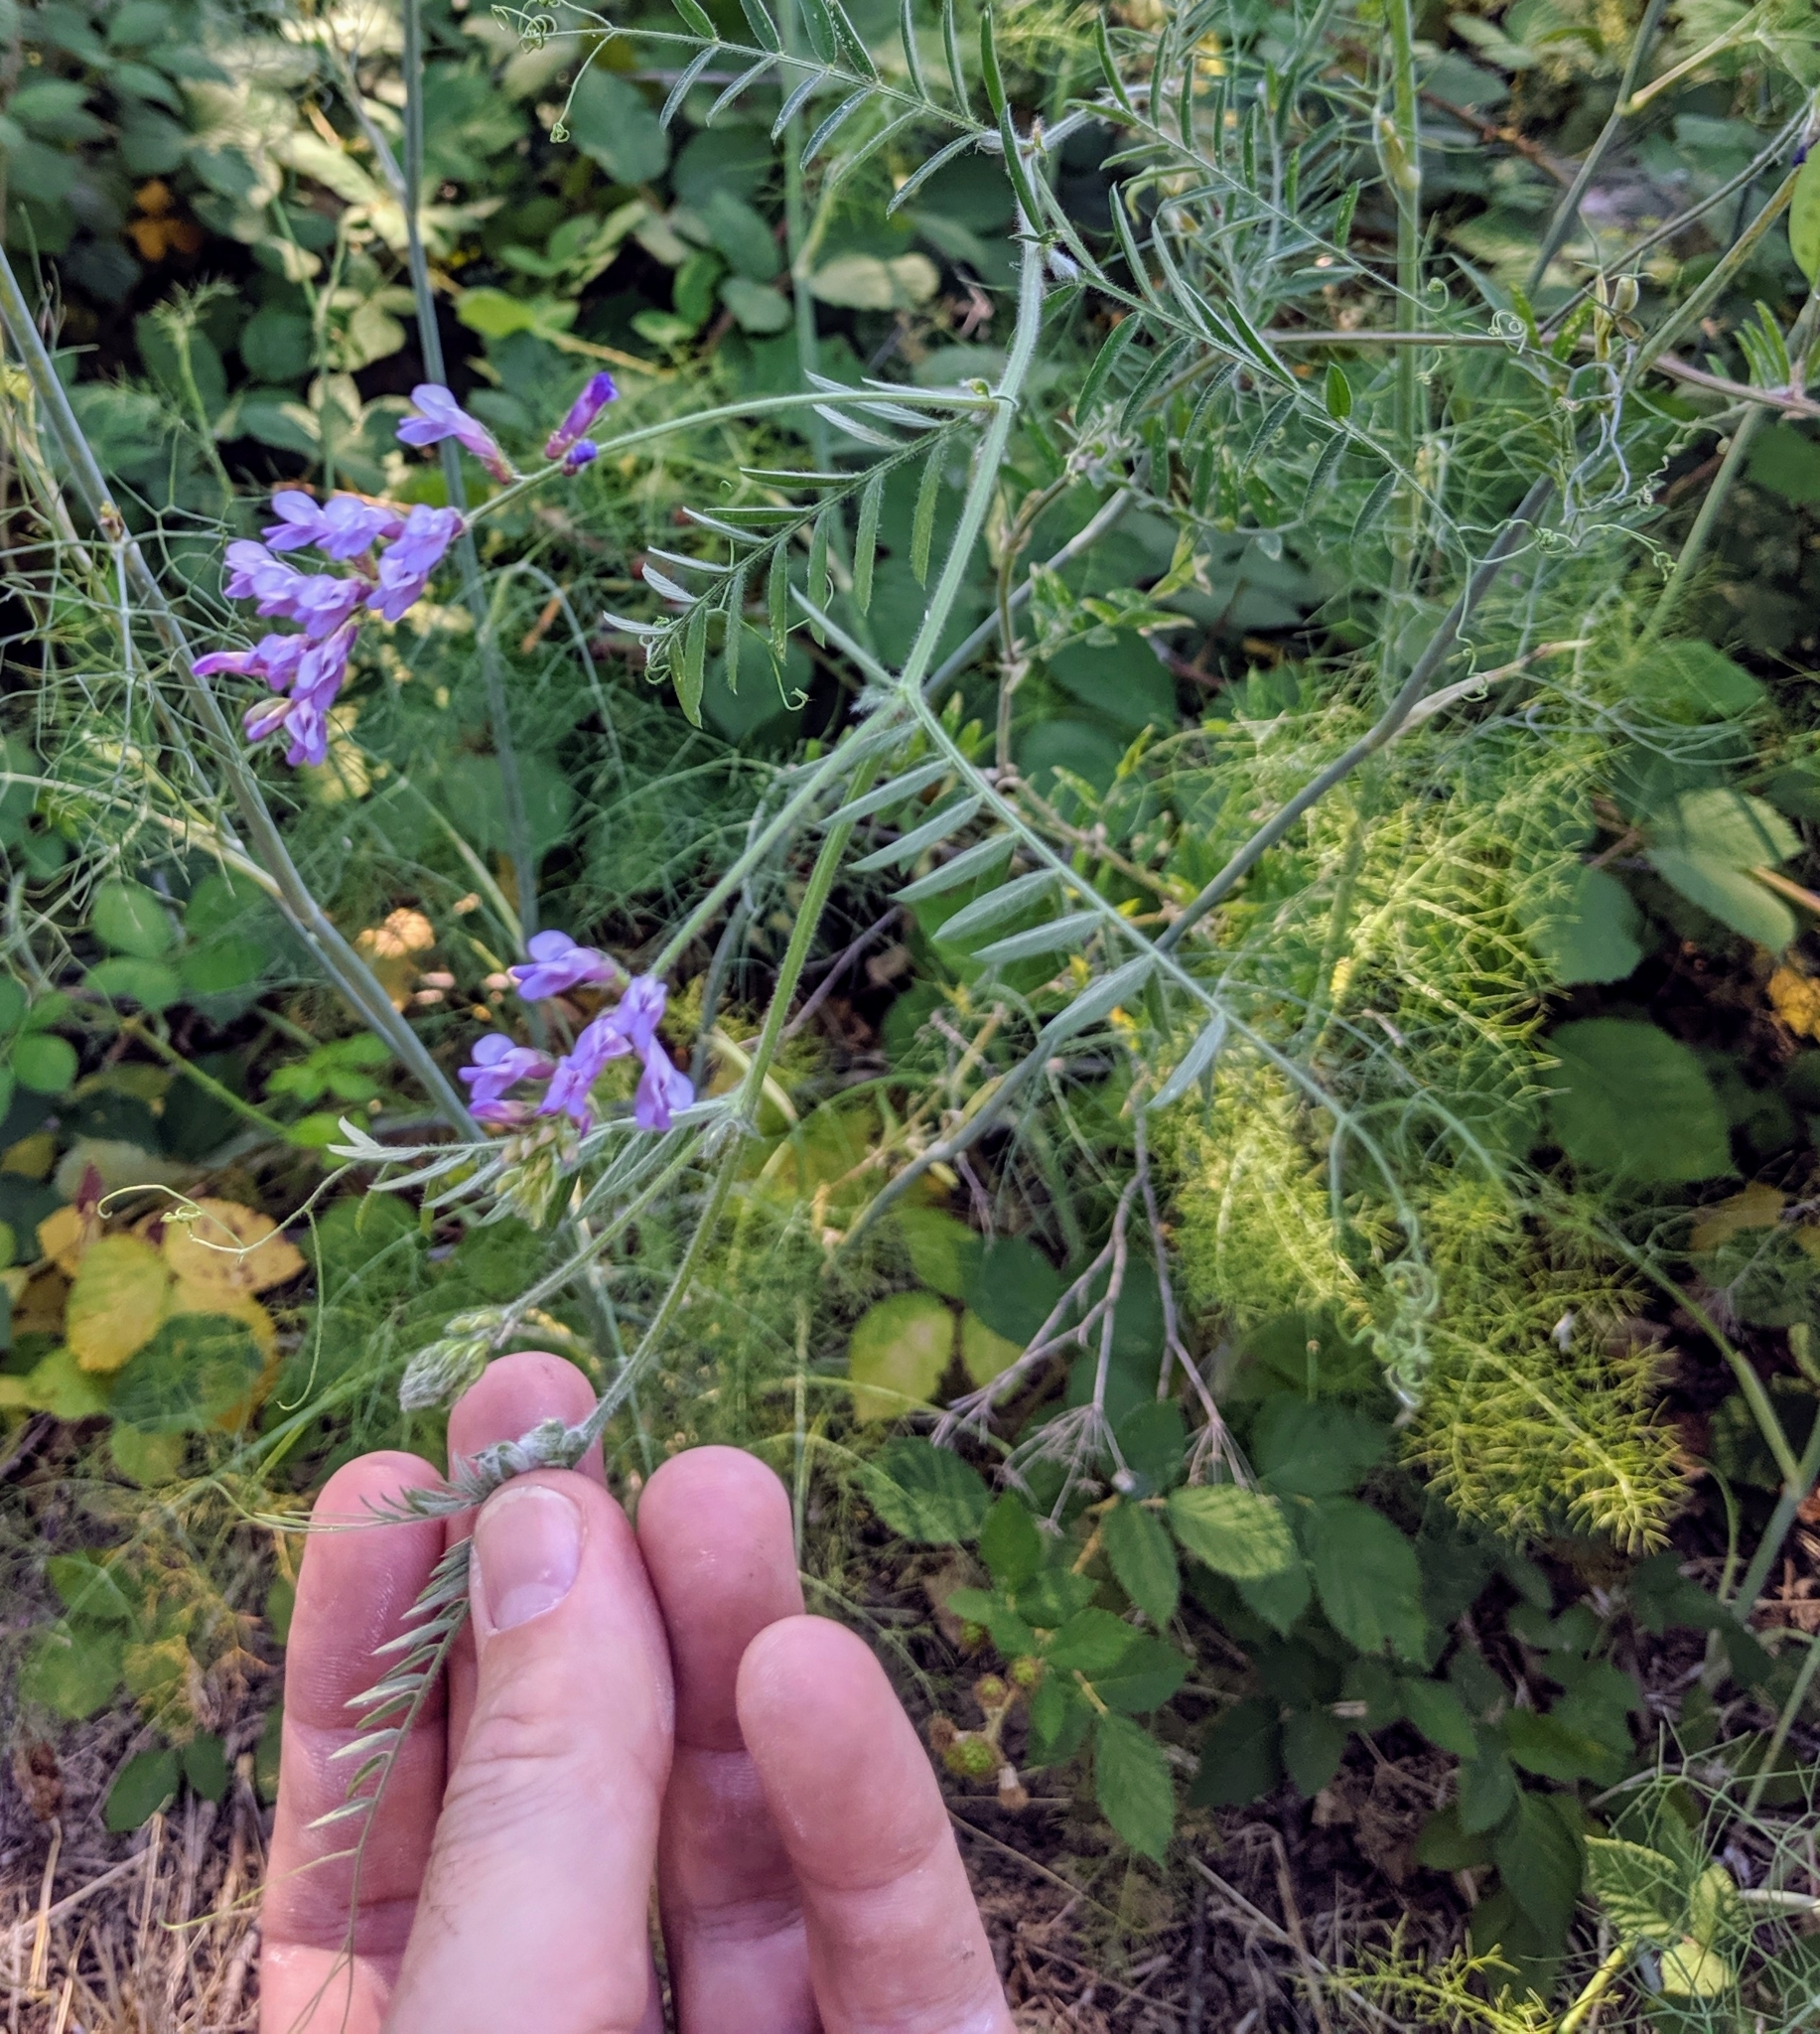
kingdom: Plantae
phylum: Tracheophyta
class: Magnoliopsida
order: Fabales
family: Fabaceae
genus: Vicia
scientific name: Vicia villosa
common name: Fodder vetch
